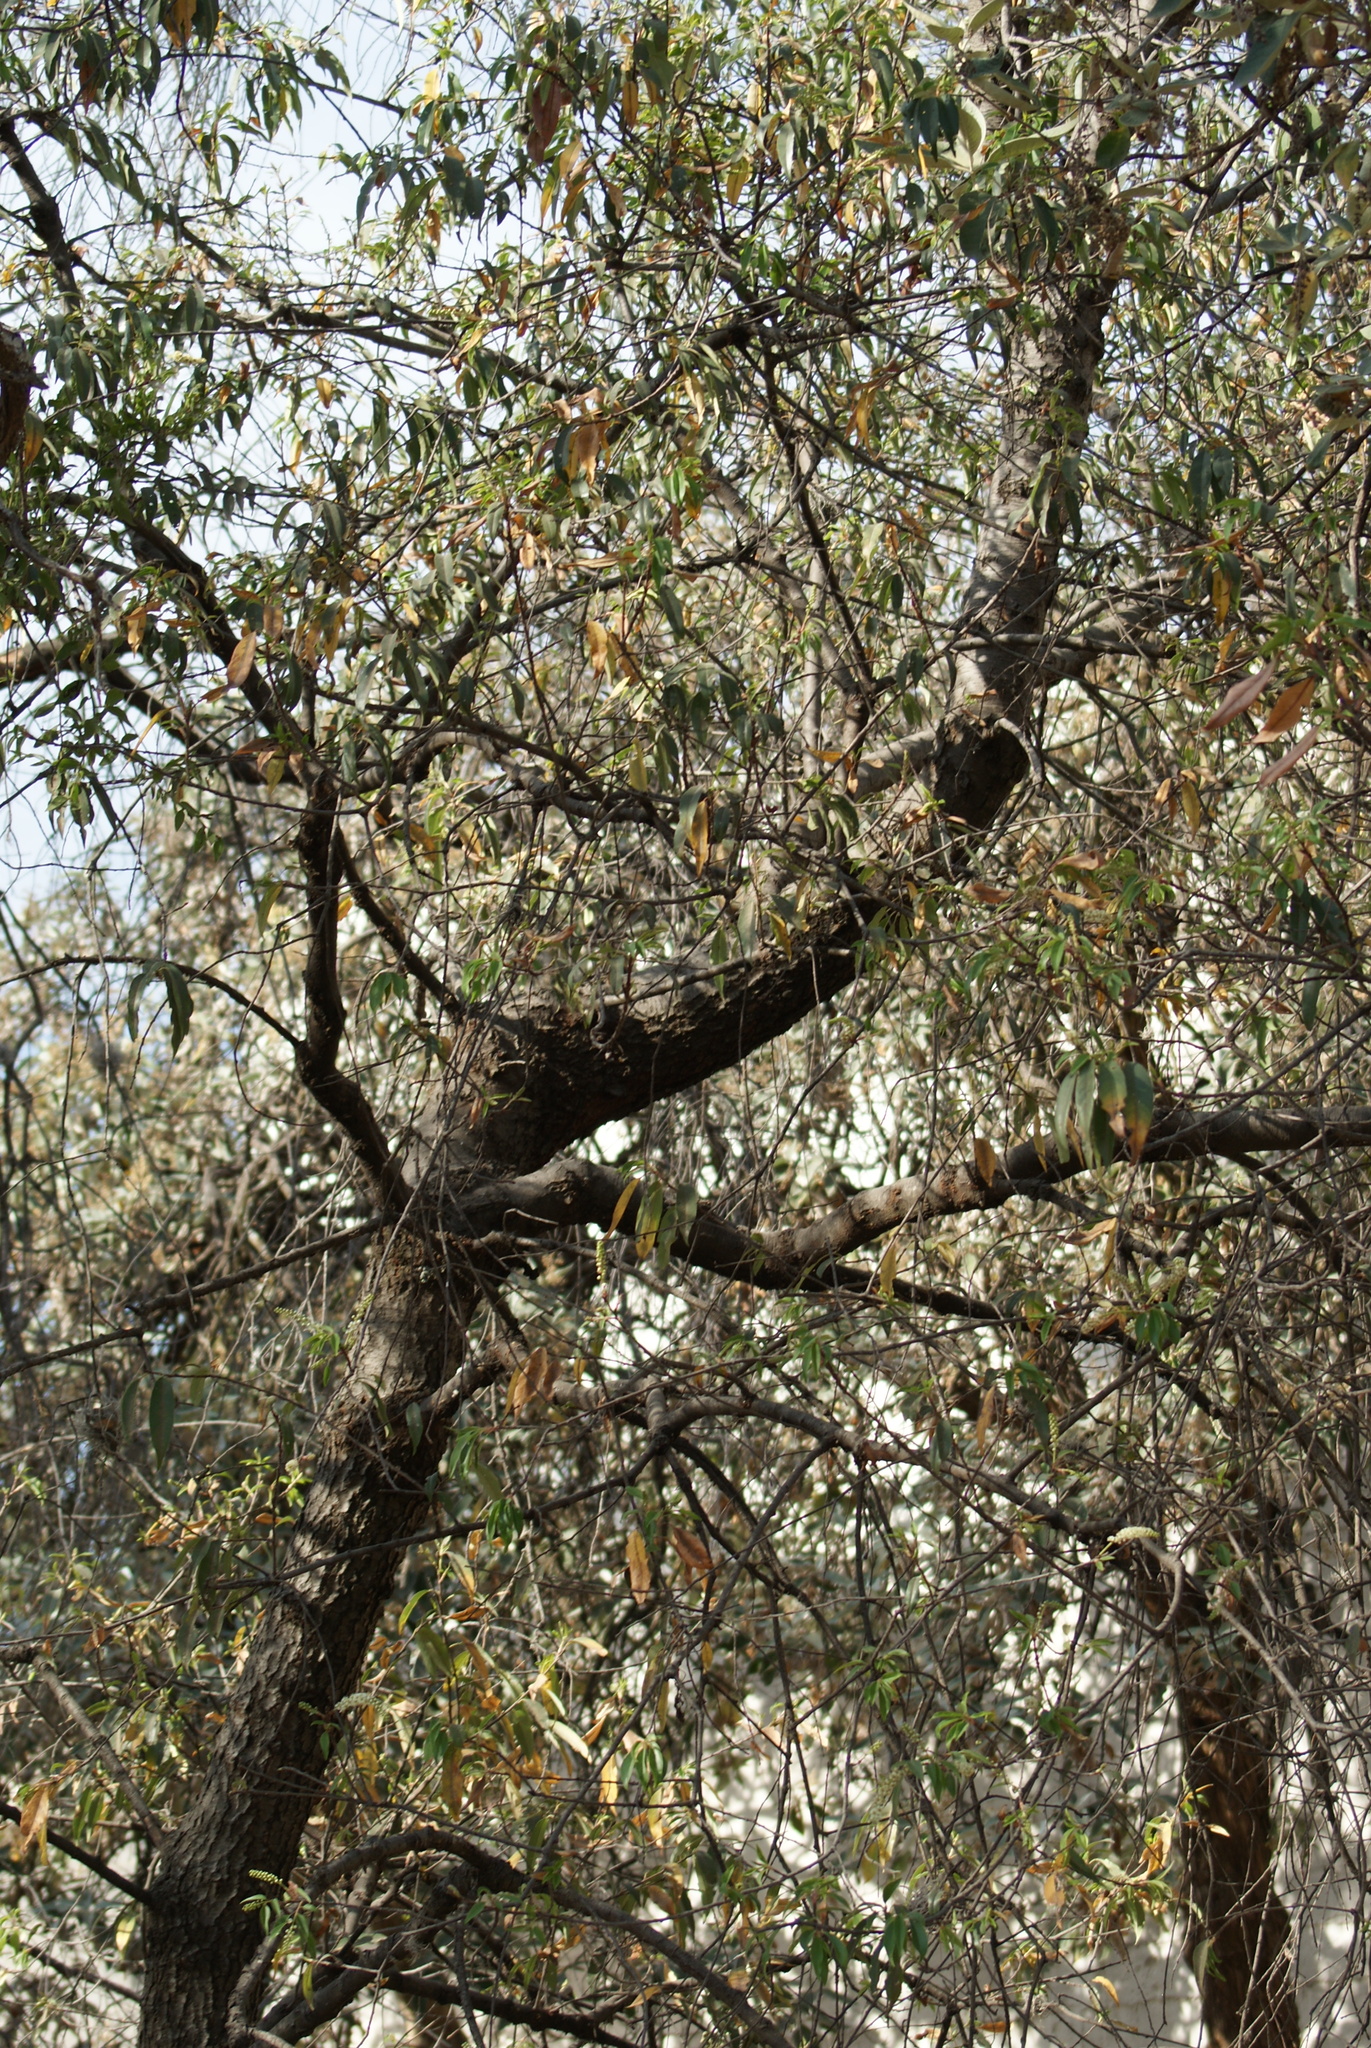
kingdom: Plantae
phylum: Tracheophyta
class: Magnoliopsida
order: Rosales
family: Rosaceae
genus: Prunus
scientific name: Prunus serotina
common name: Black cherry
